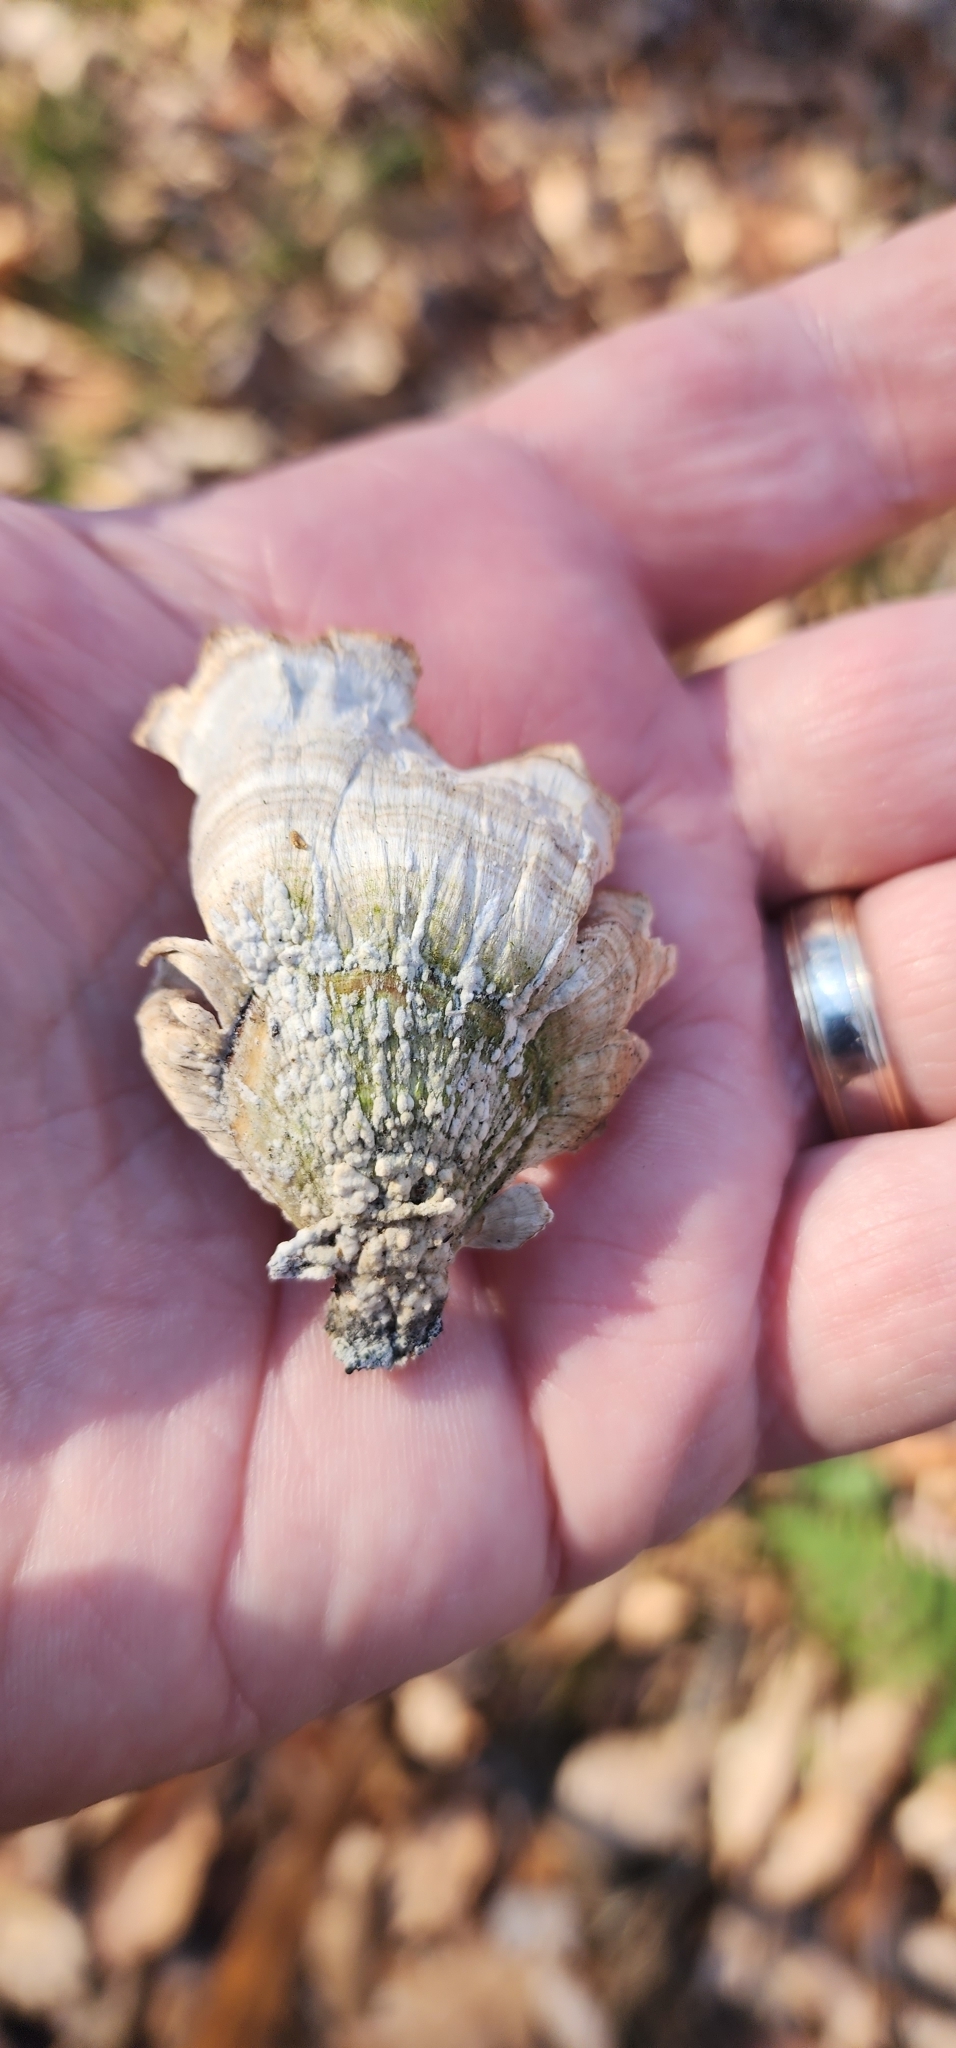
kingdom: Fungi
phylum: Basidiomycota
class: Agaricomycetes
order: Russulales
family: Stereaceae
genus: Stereum
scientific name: Stereum ostrea
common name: False turkeytail
